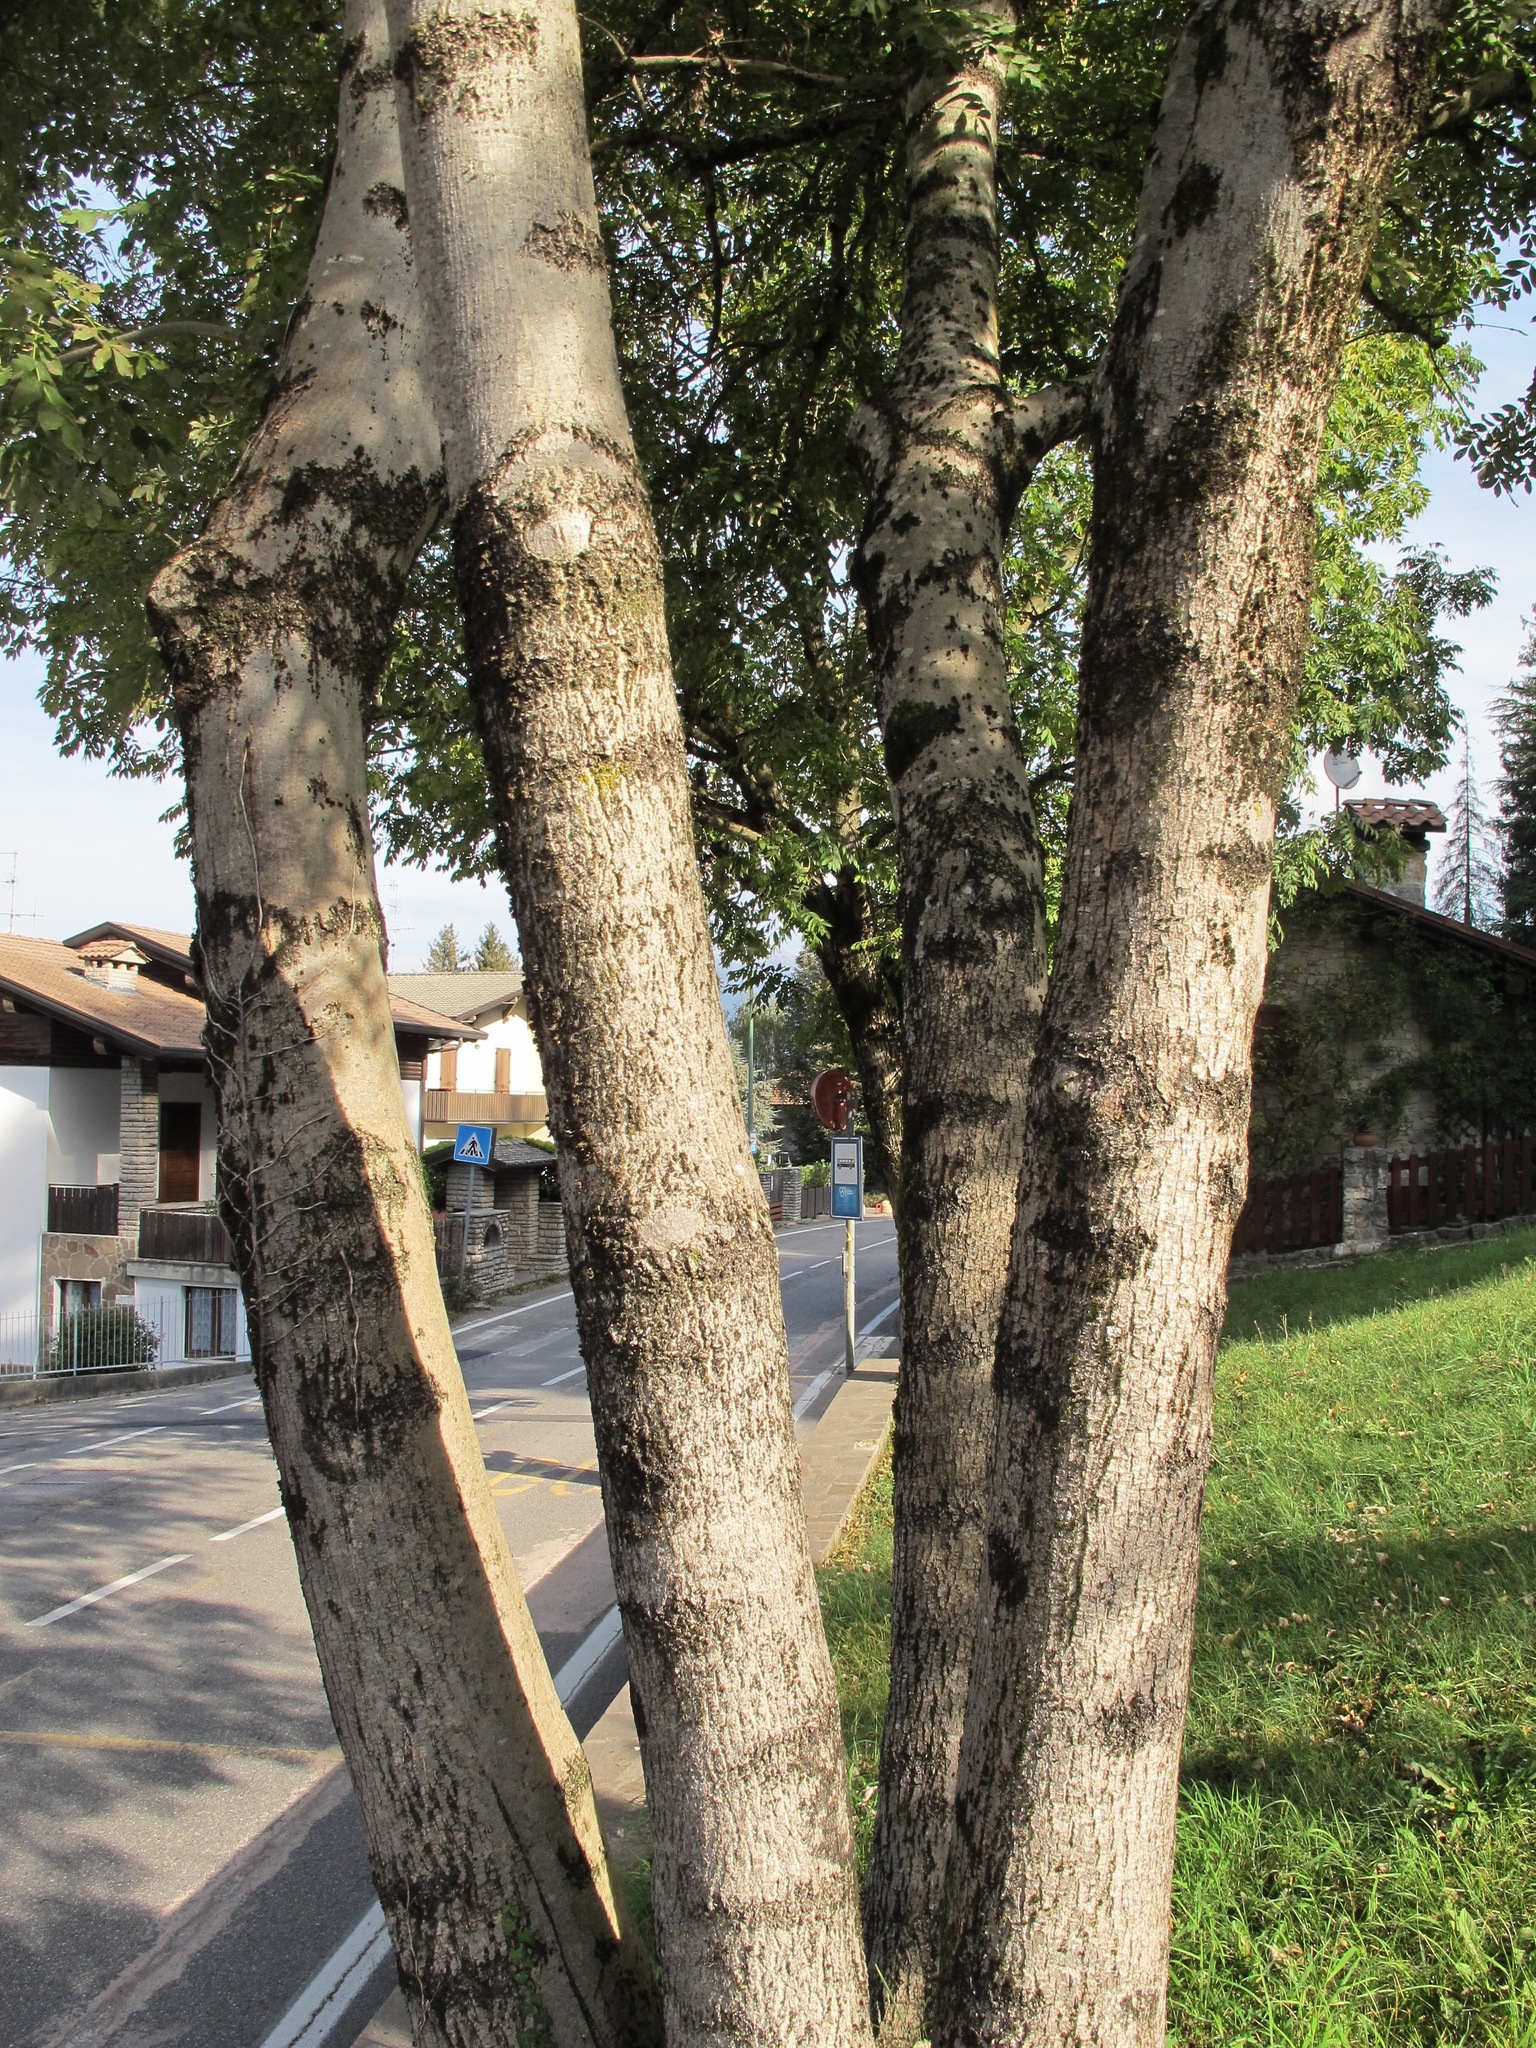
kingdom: Plantae
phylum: Tracheophyta
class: Magnoliopsida
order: Lamiales
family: Oleaceae
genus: Fraxinus
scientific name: Fraxinus excelsior
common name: European ash
